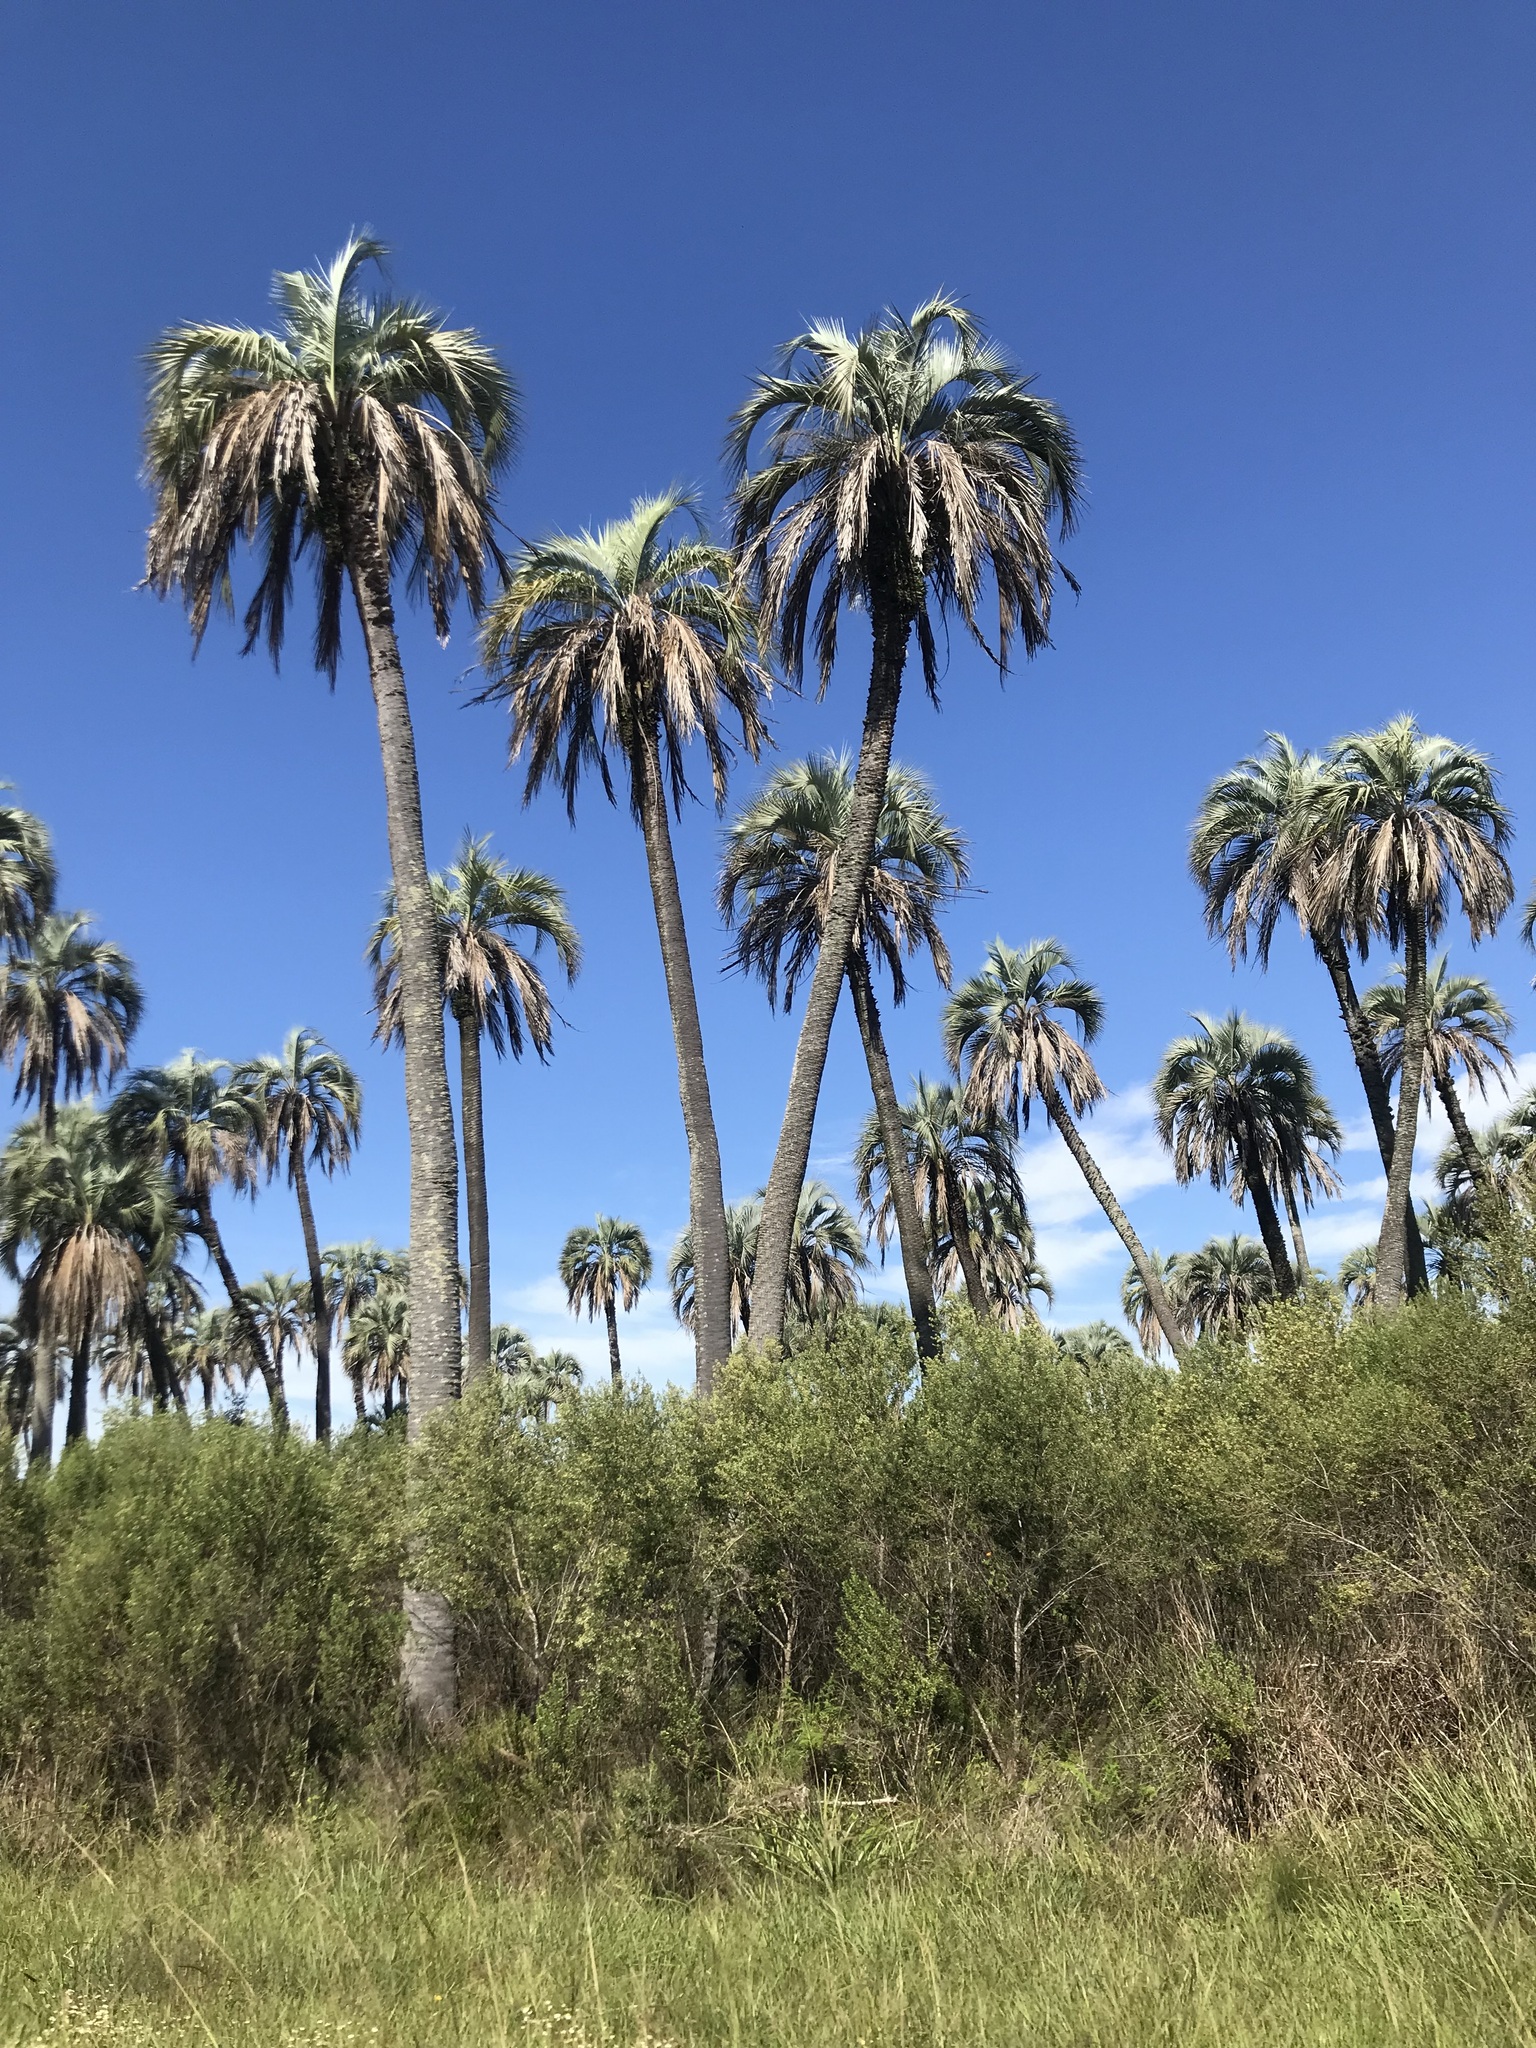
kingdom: Plantae
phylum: Tracheophyta
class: Liliopsida
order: Arecales
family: Arecaceae
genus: Butia
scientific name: Butia yatay
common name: Yatay palm
